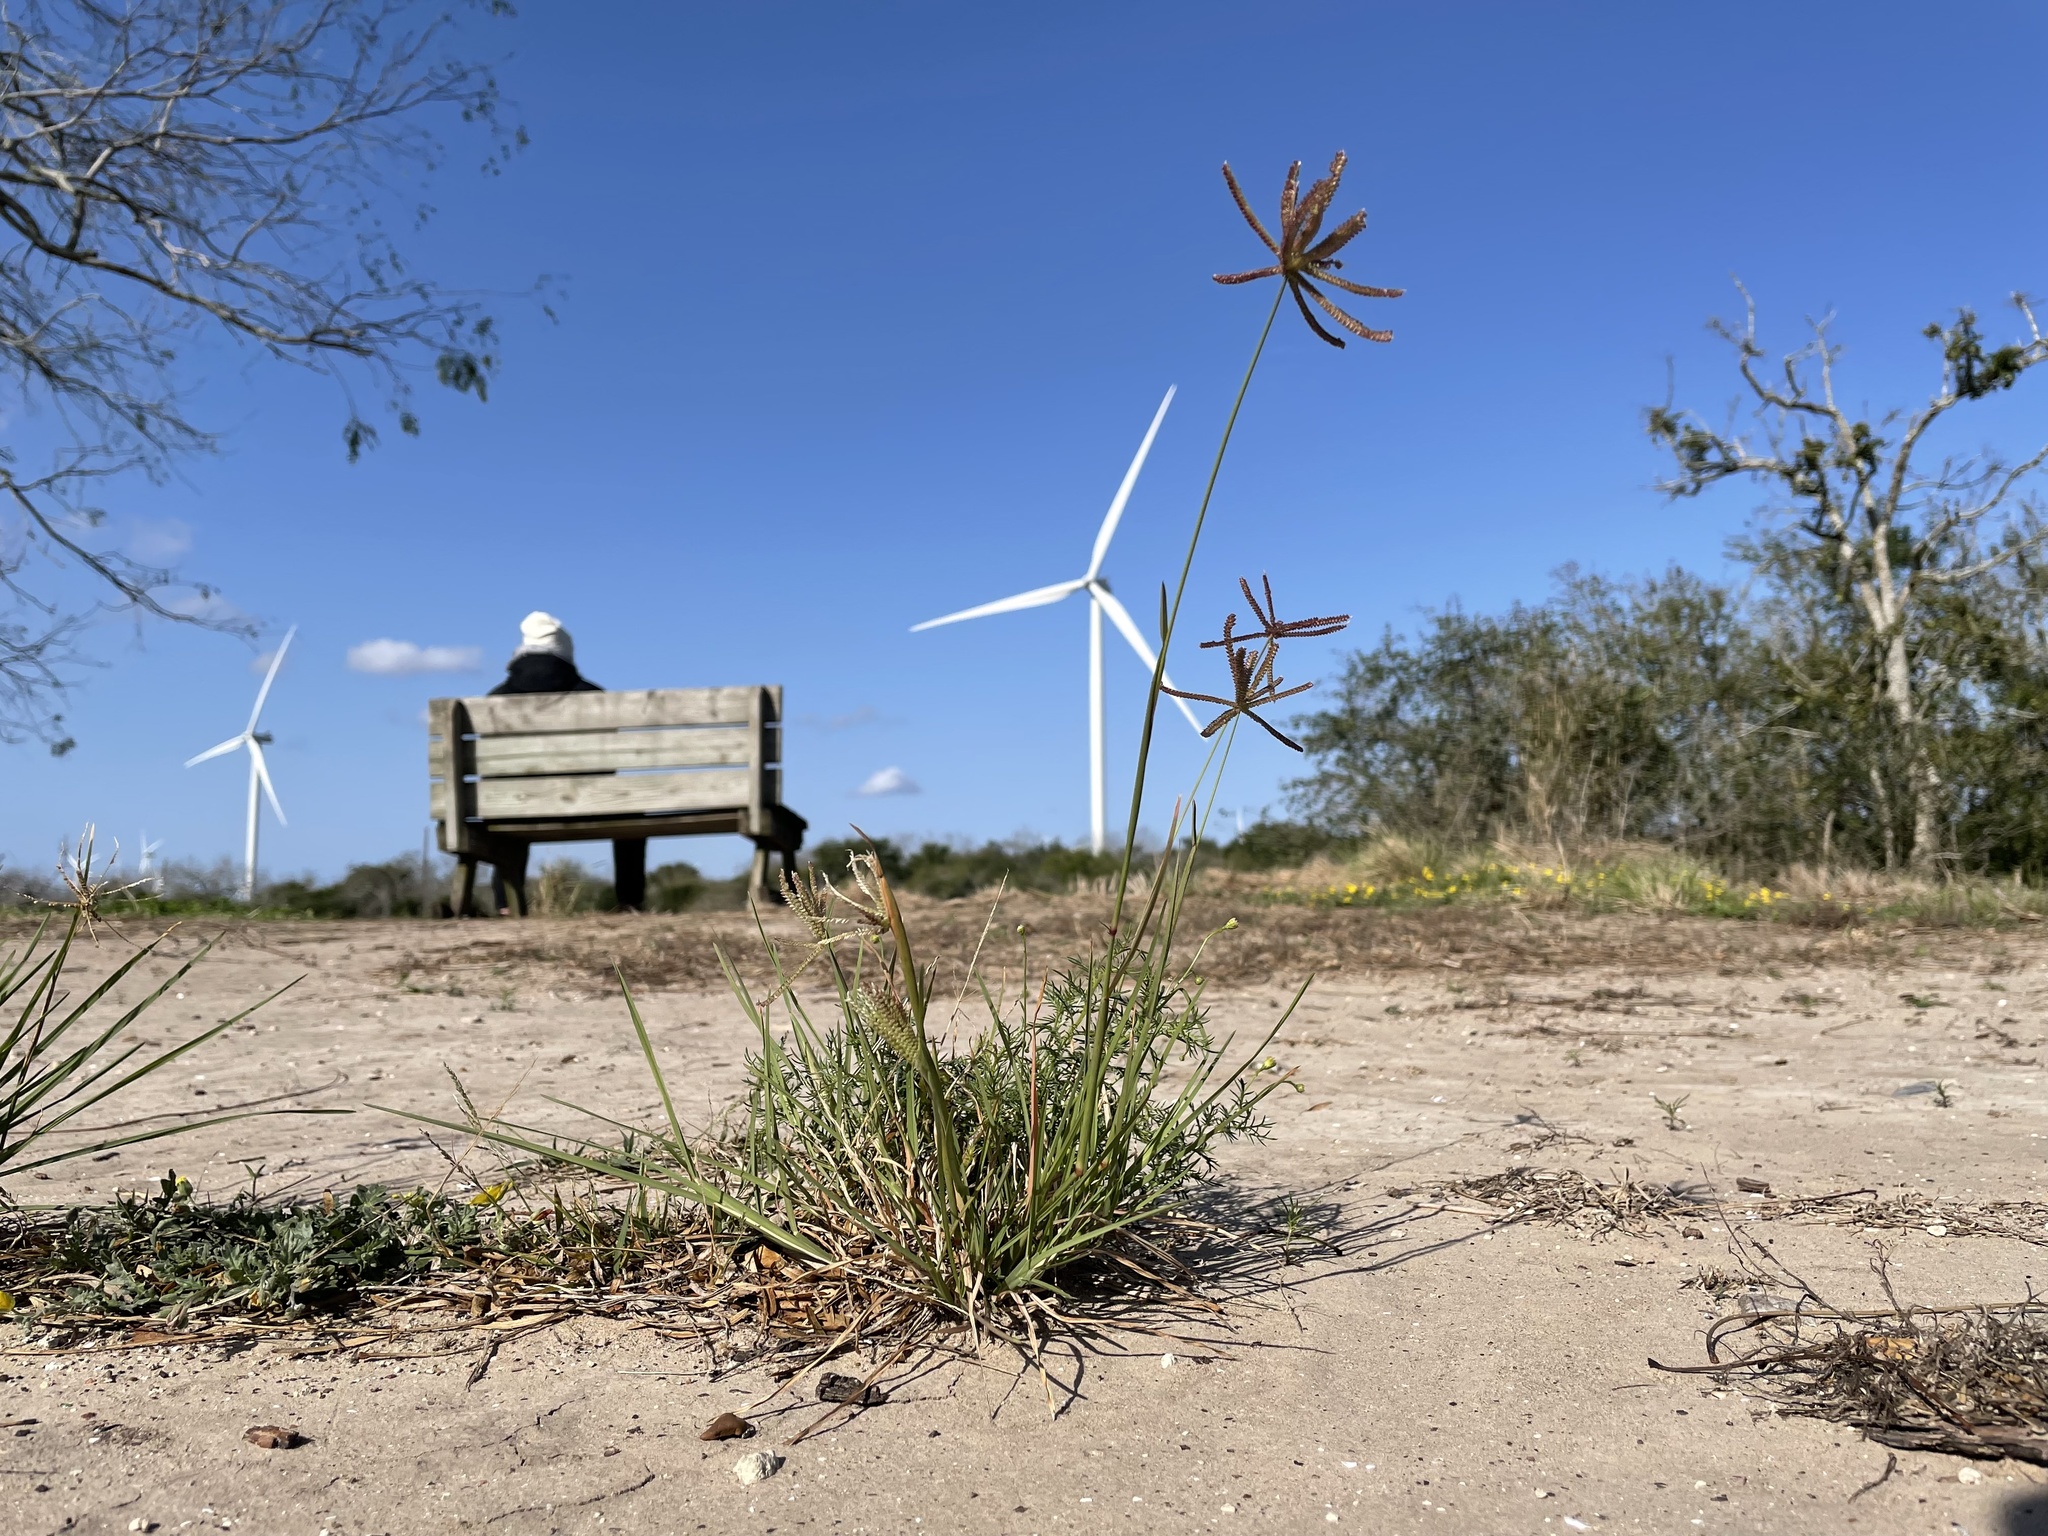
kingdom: Plantae
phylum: Tracheophyta
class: Liliopsida
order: Poales
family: Poaceae
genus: Chloris
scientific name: Chloris cucullata
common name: Hooded windmill grass
